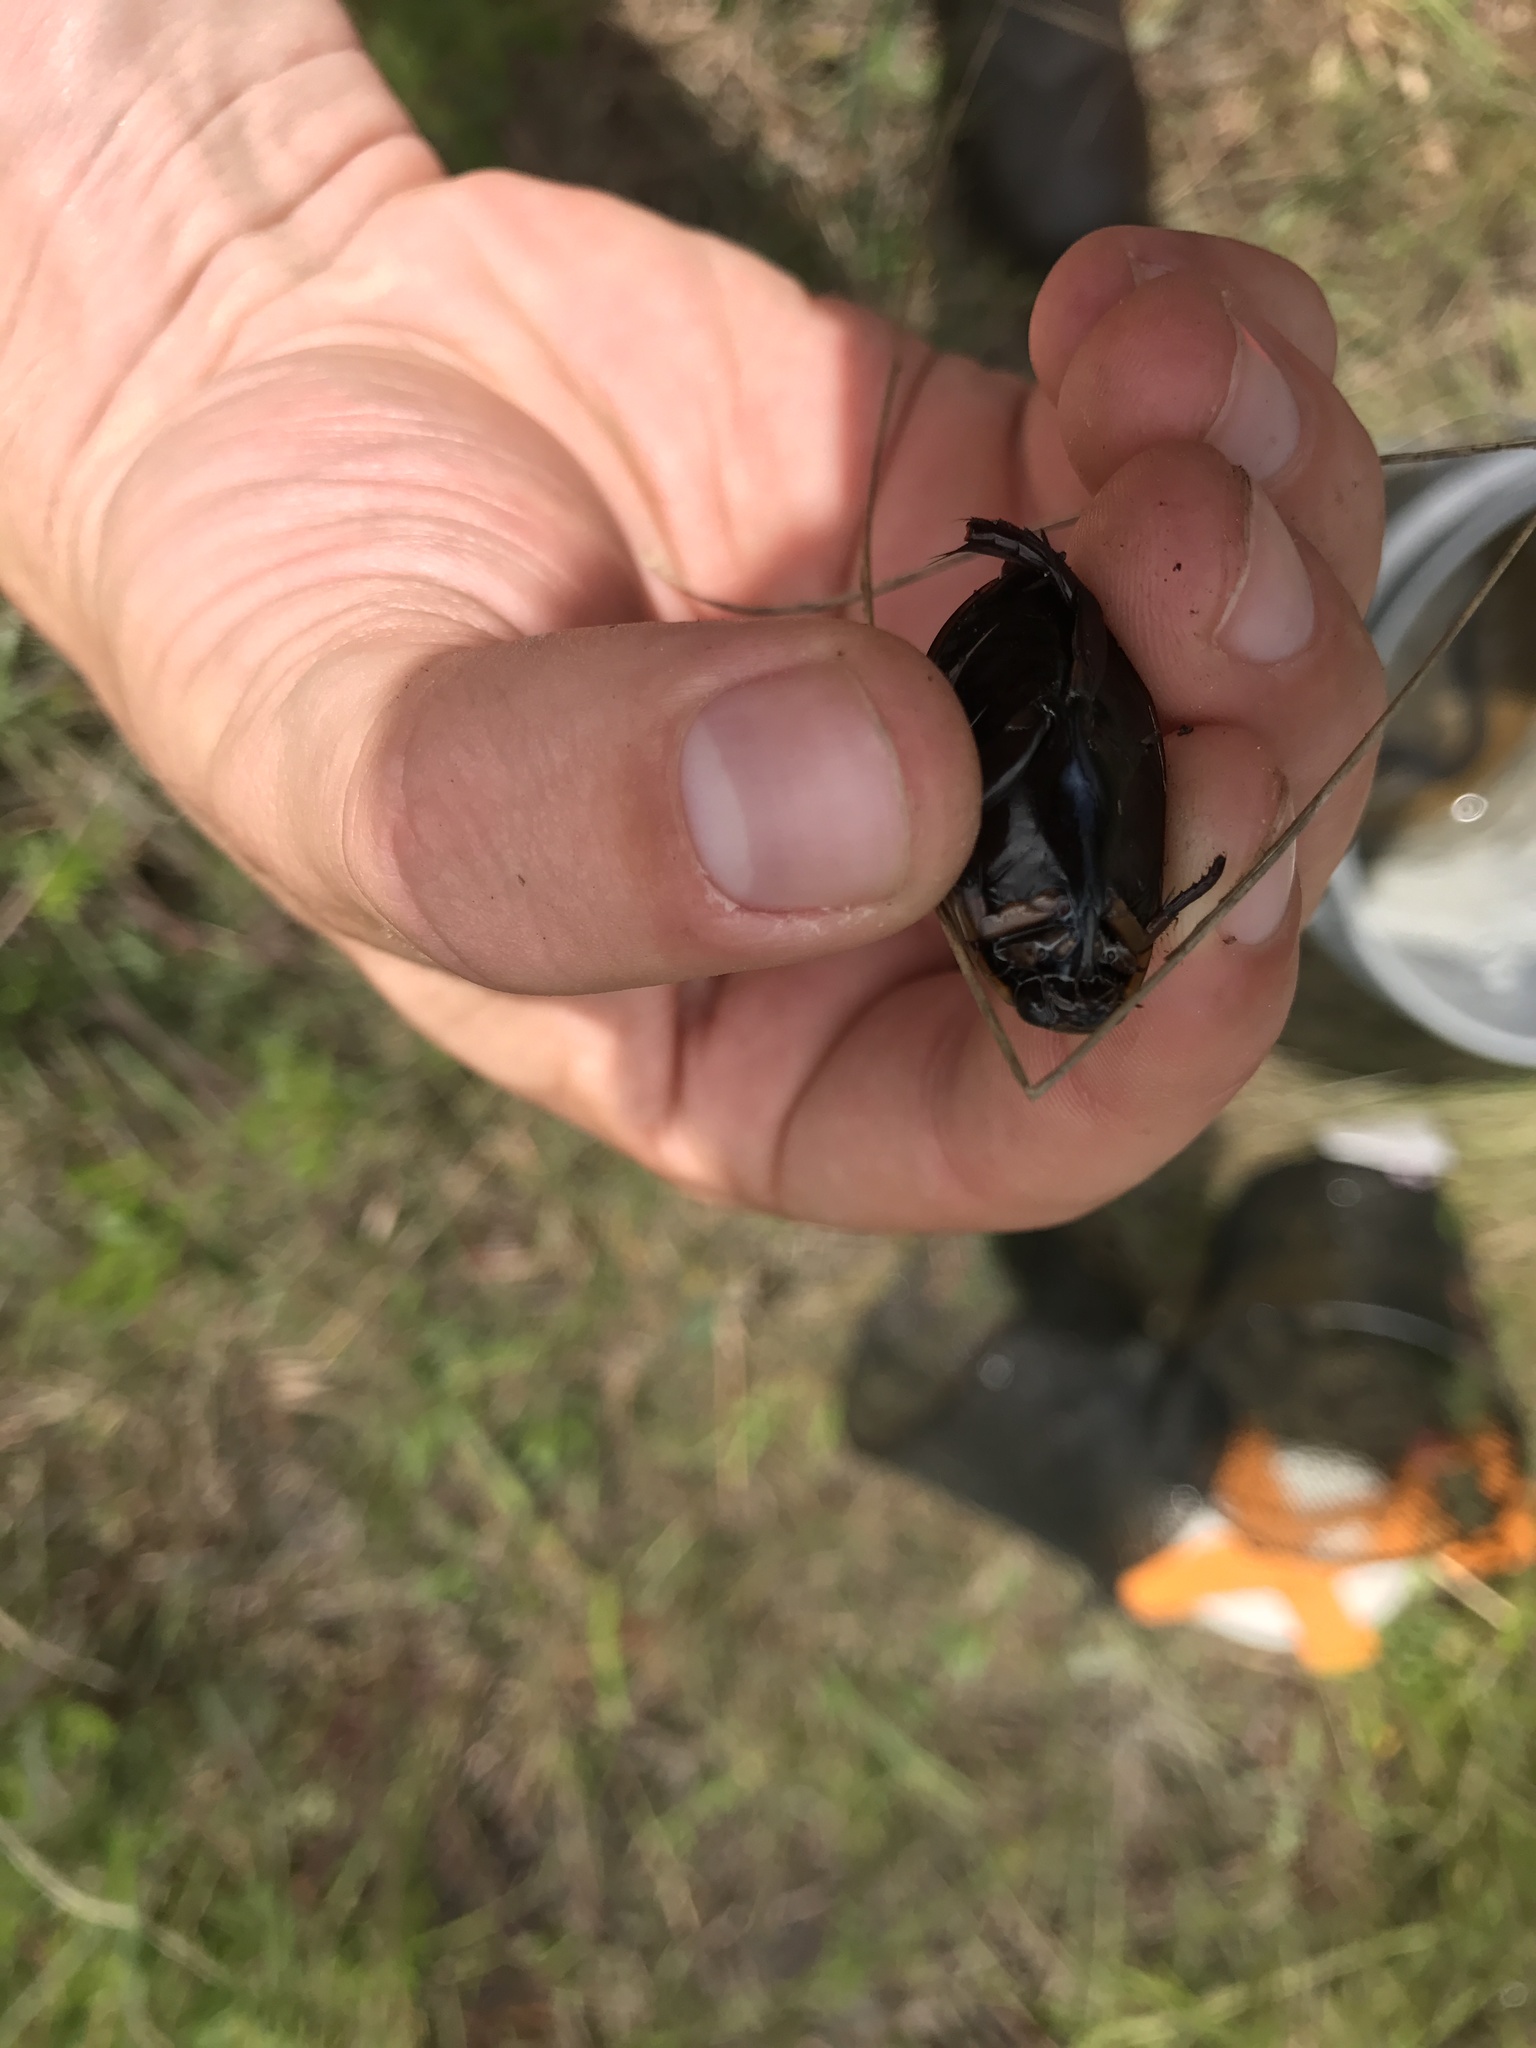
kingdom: Animalia
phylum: Arthropoda
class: Insecta
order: Coleoptera
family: Dytiscidae
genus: Cybister
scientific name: Cybister fimbriolatus
